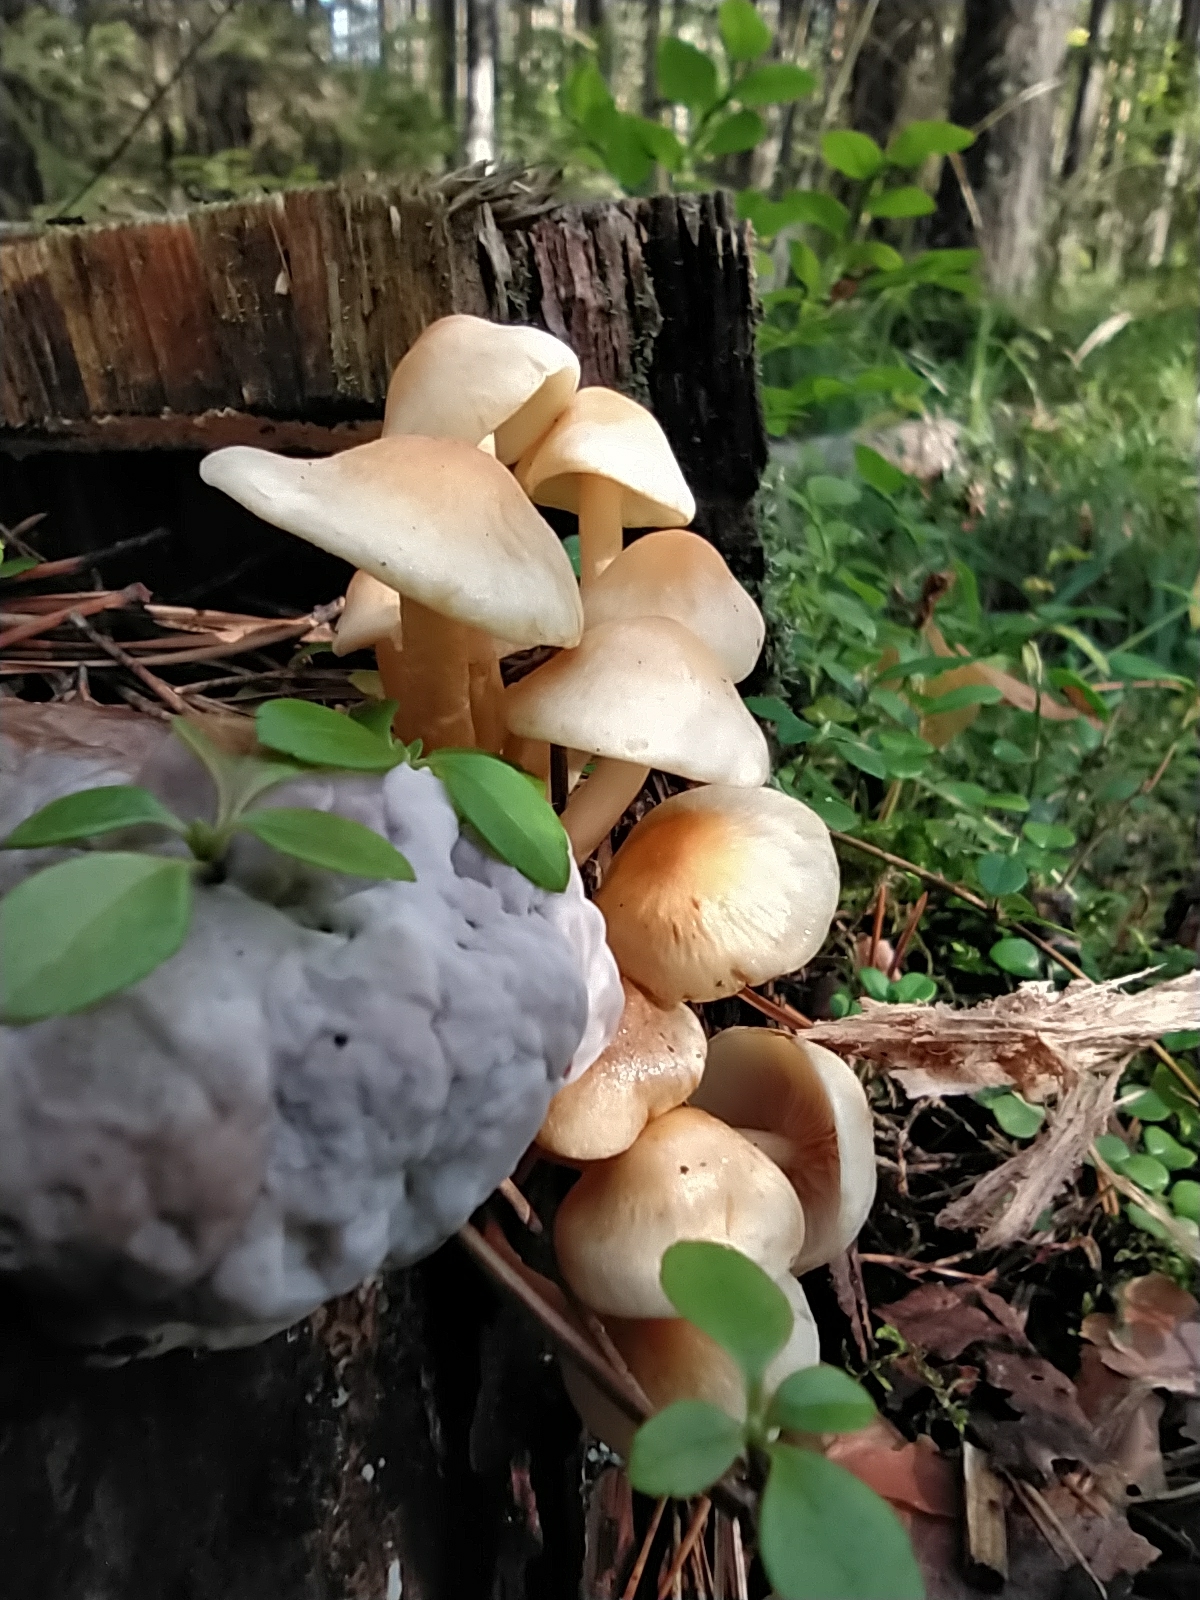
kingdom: Fungi
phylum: Basidiomycota
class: Agaricomycetes
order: Agaricales
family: Strophariaceae
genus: Hypholoma
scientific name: Hypholoma fasciculare
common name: Sulphur tuft
